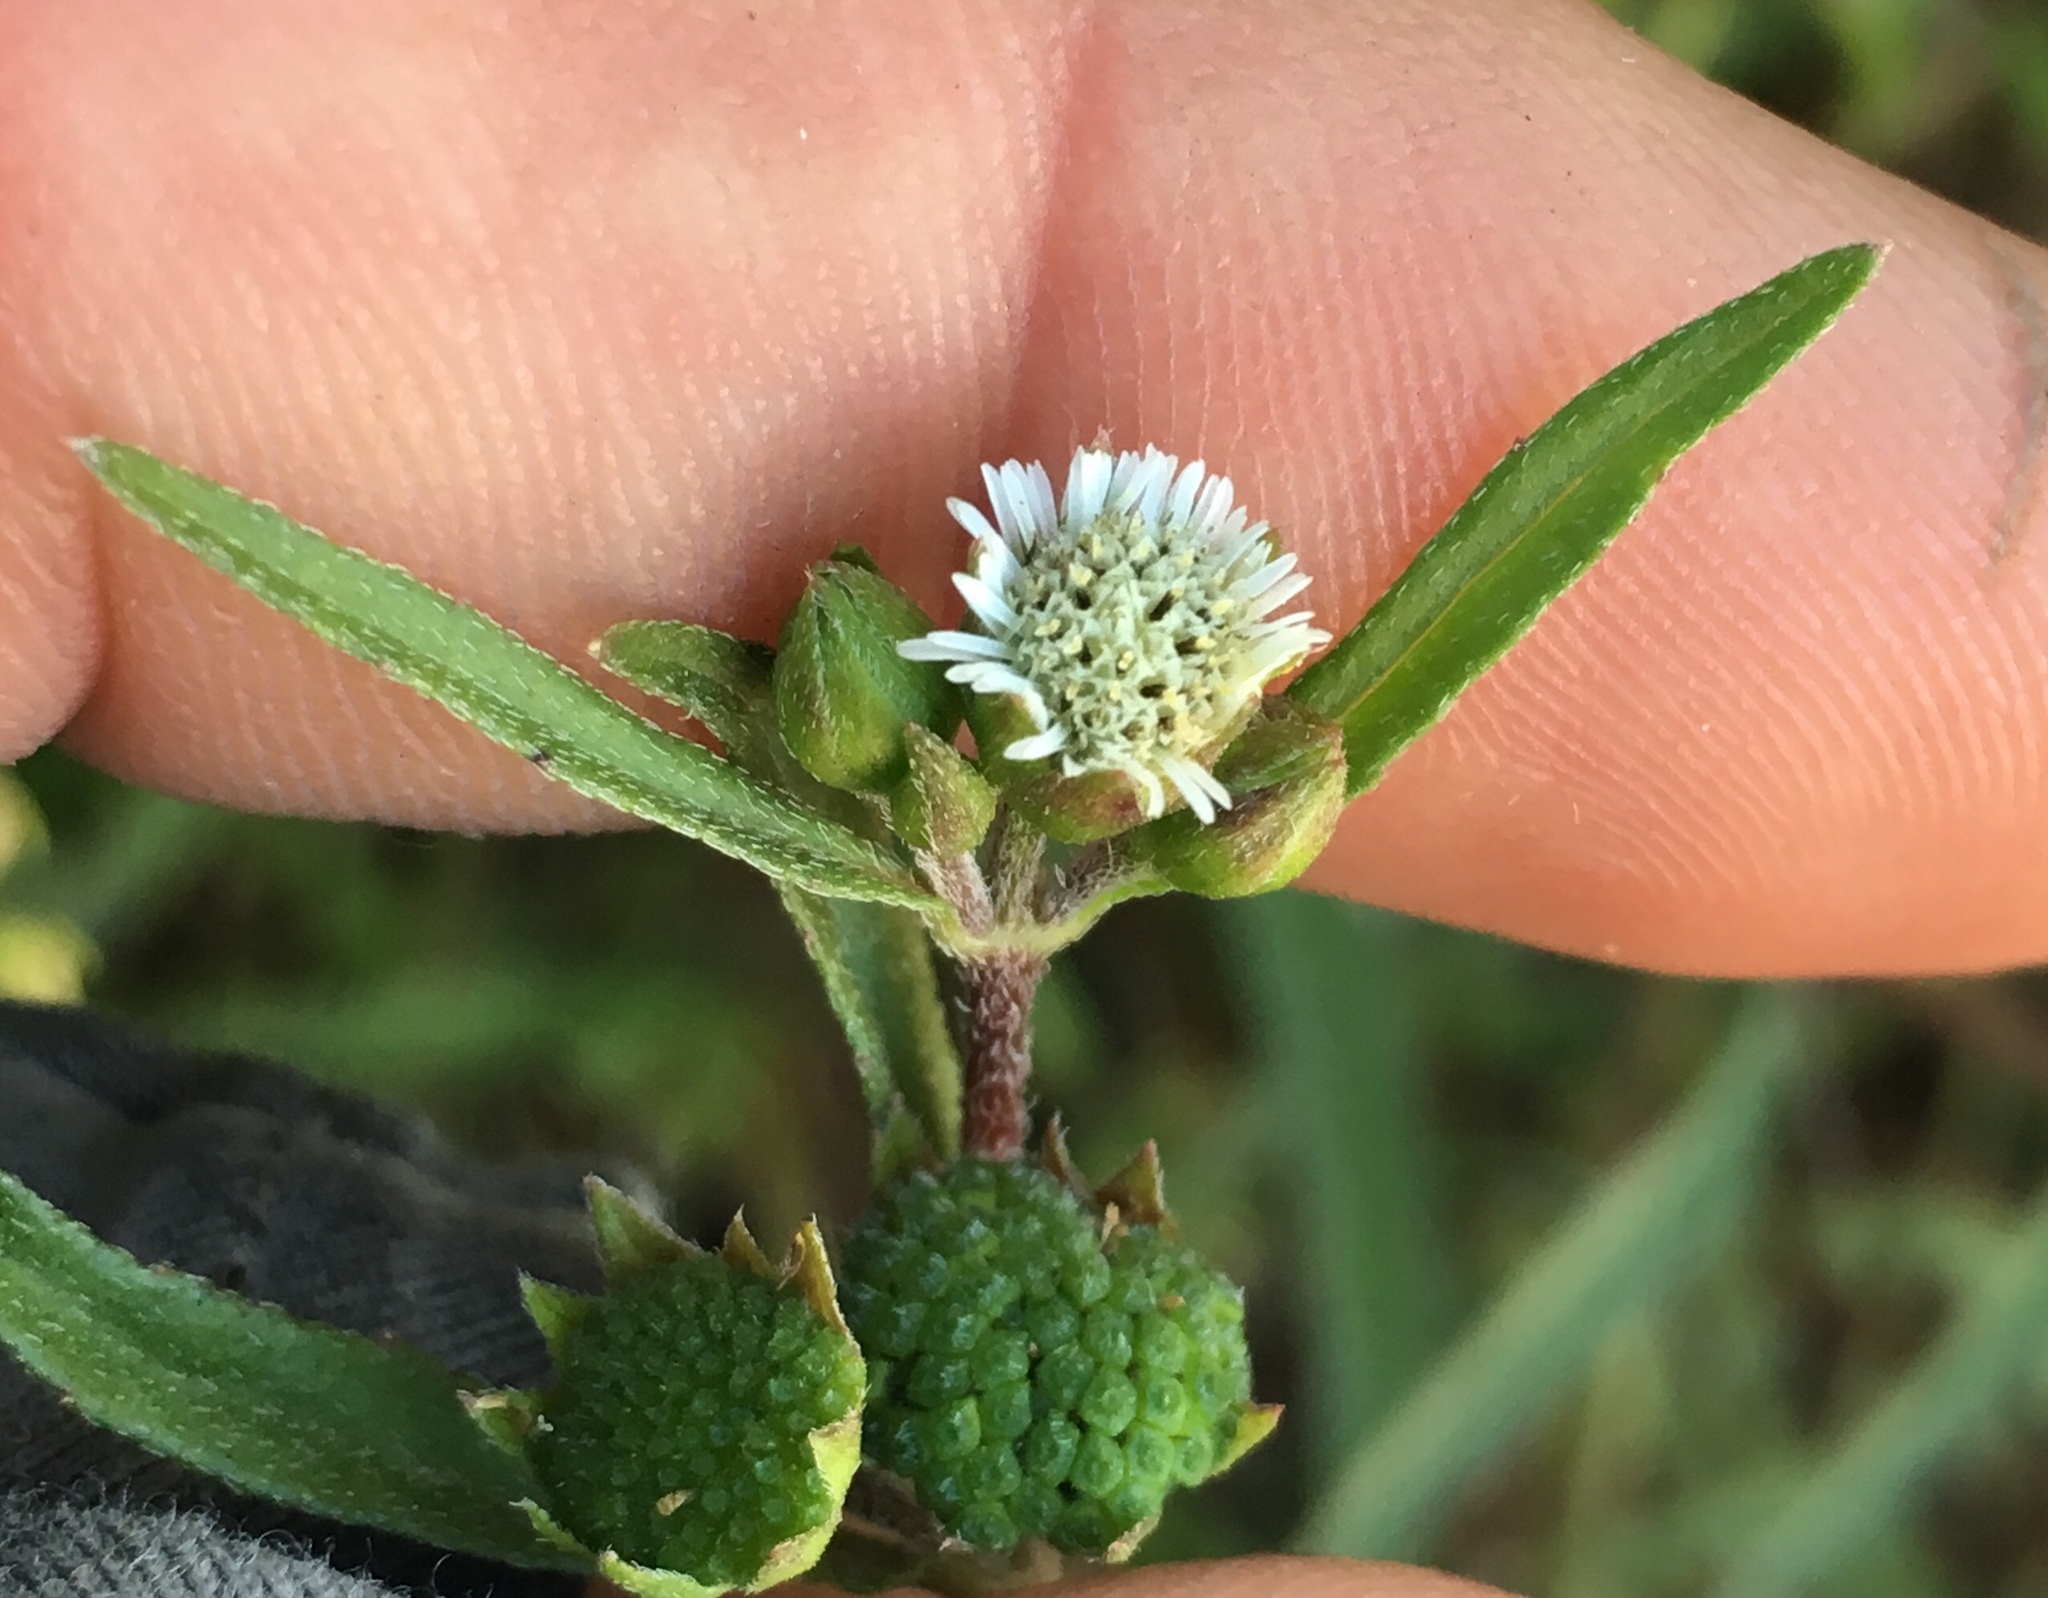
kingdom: Plantae
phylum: Tracheophyta
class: Magnoliopsida
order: Asterales
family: Asteraceae
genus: Eclipta
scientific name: Eclipta prostrata
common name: False daisy
